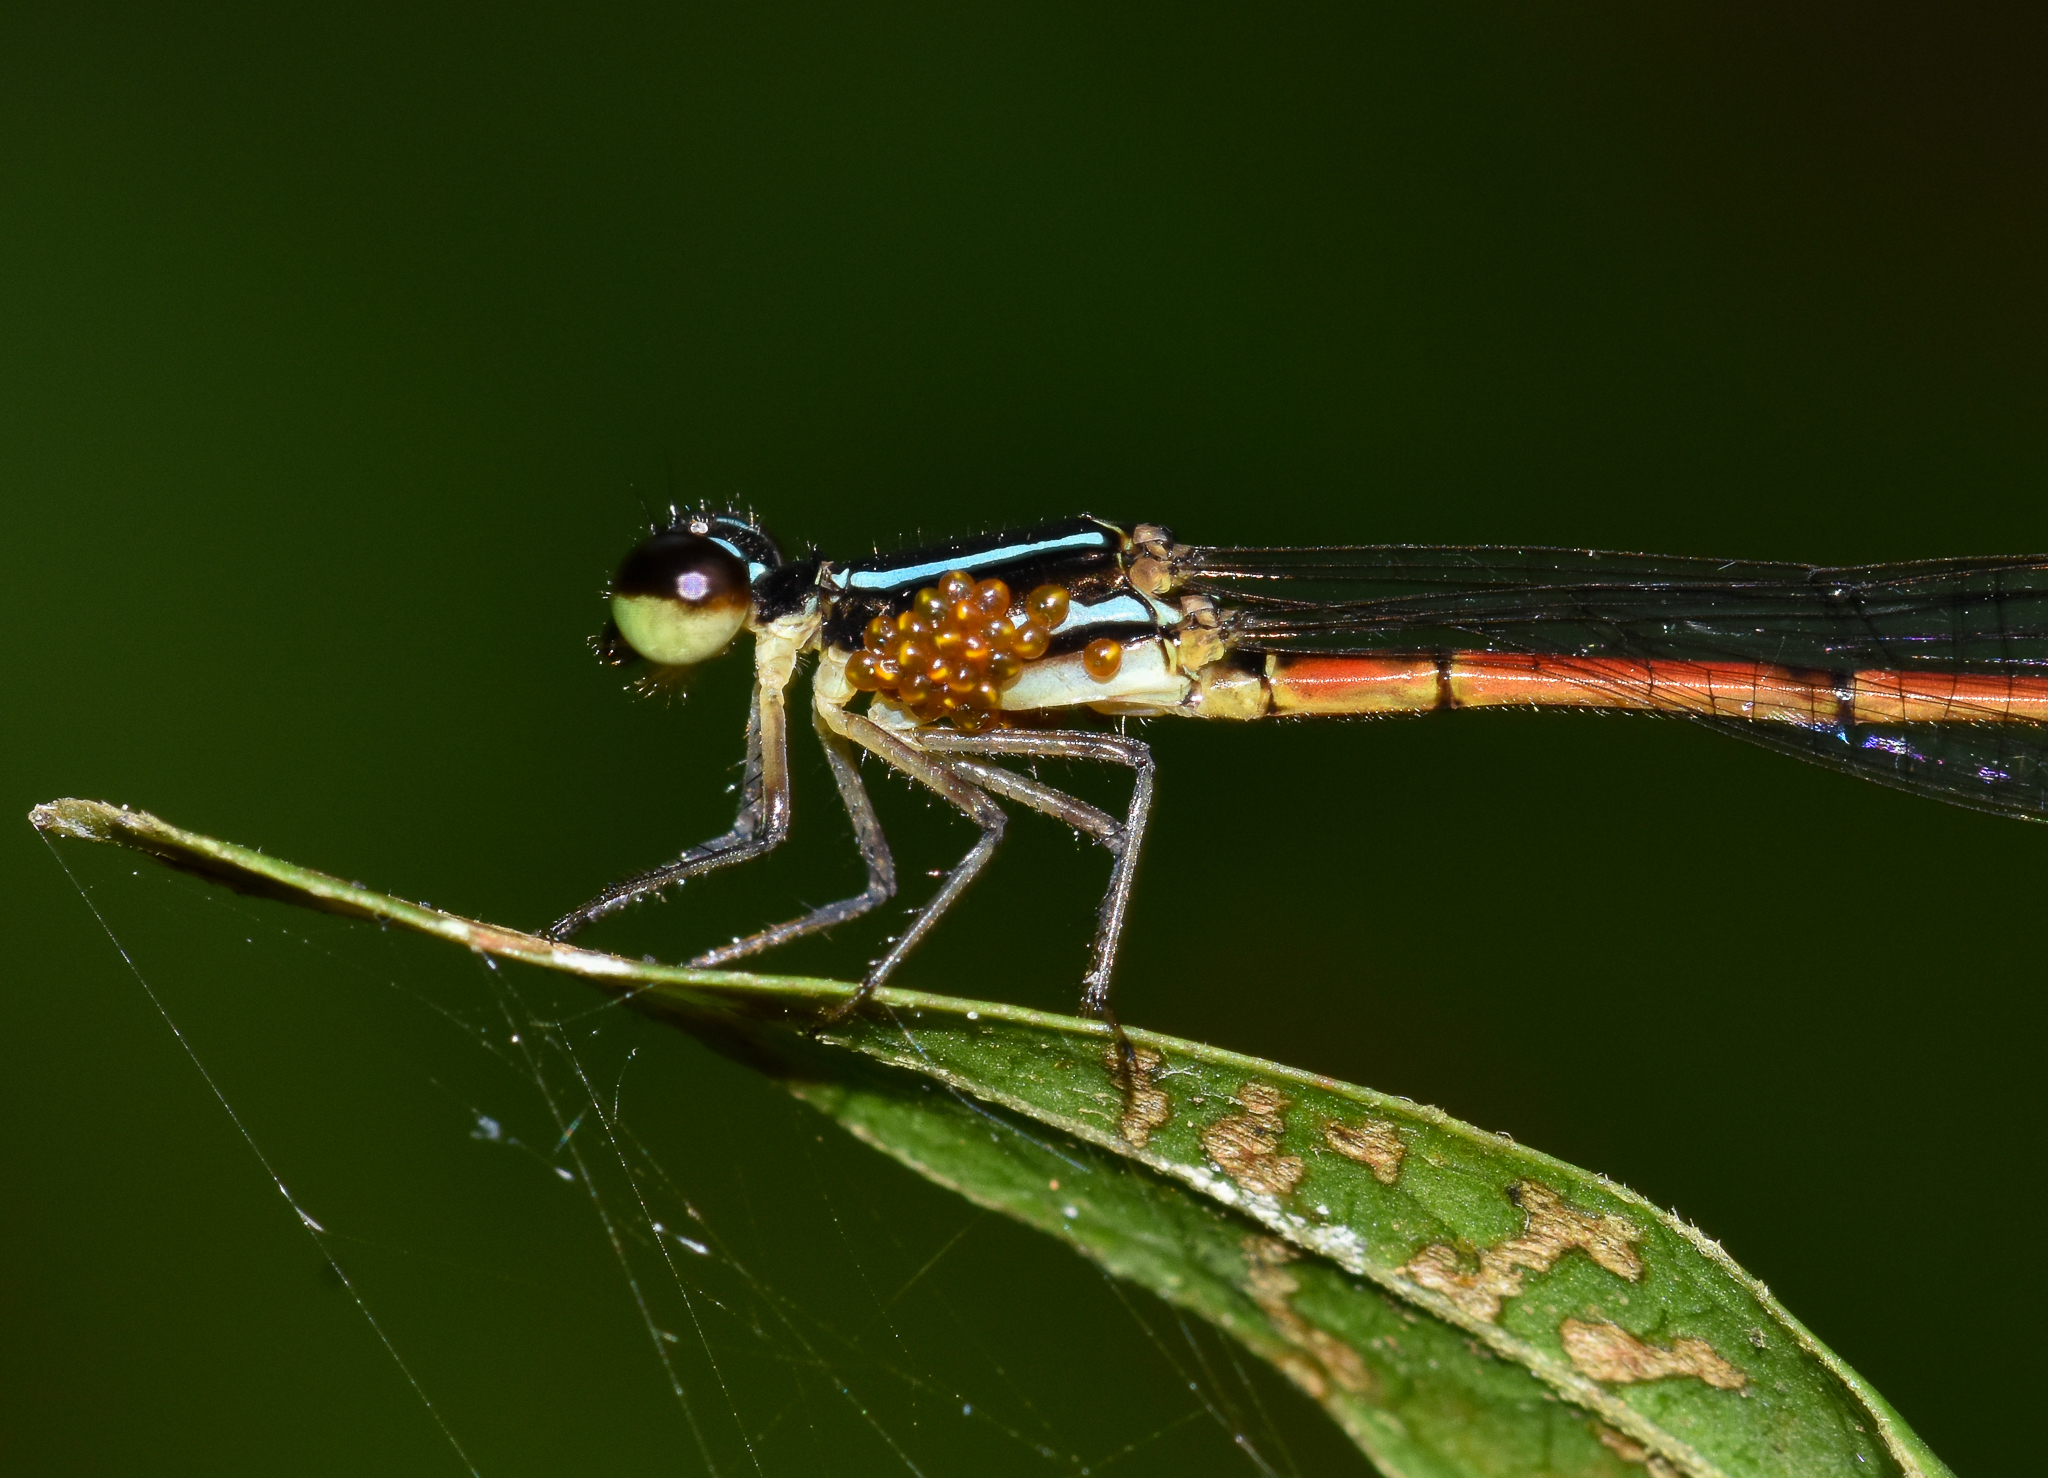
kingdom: Animalia
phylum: Arthropoda
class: Insecta
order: Odonata
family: Coenagrionidae
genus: Mortonagrion
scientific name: Mortonagrion aborense
